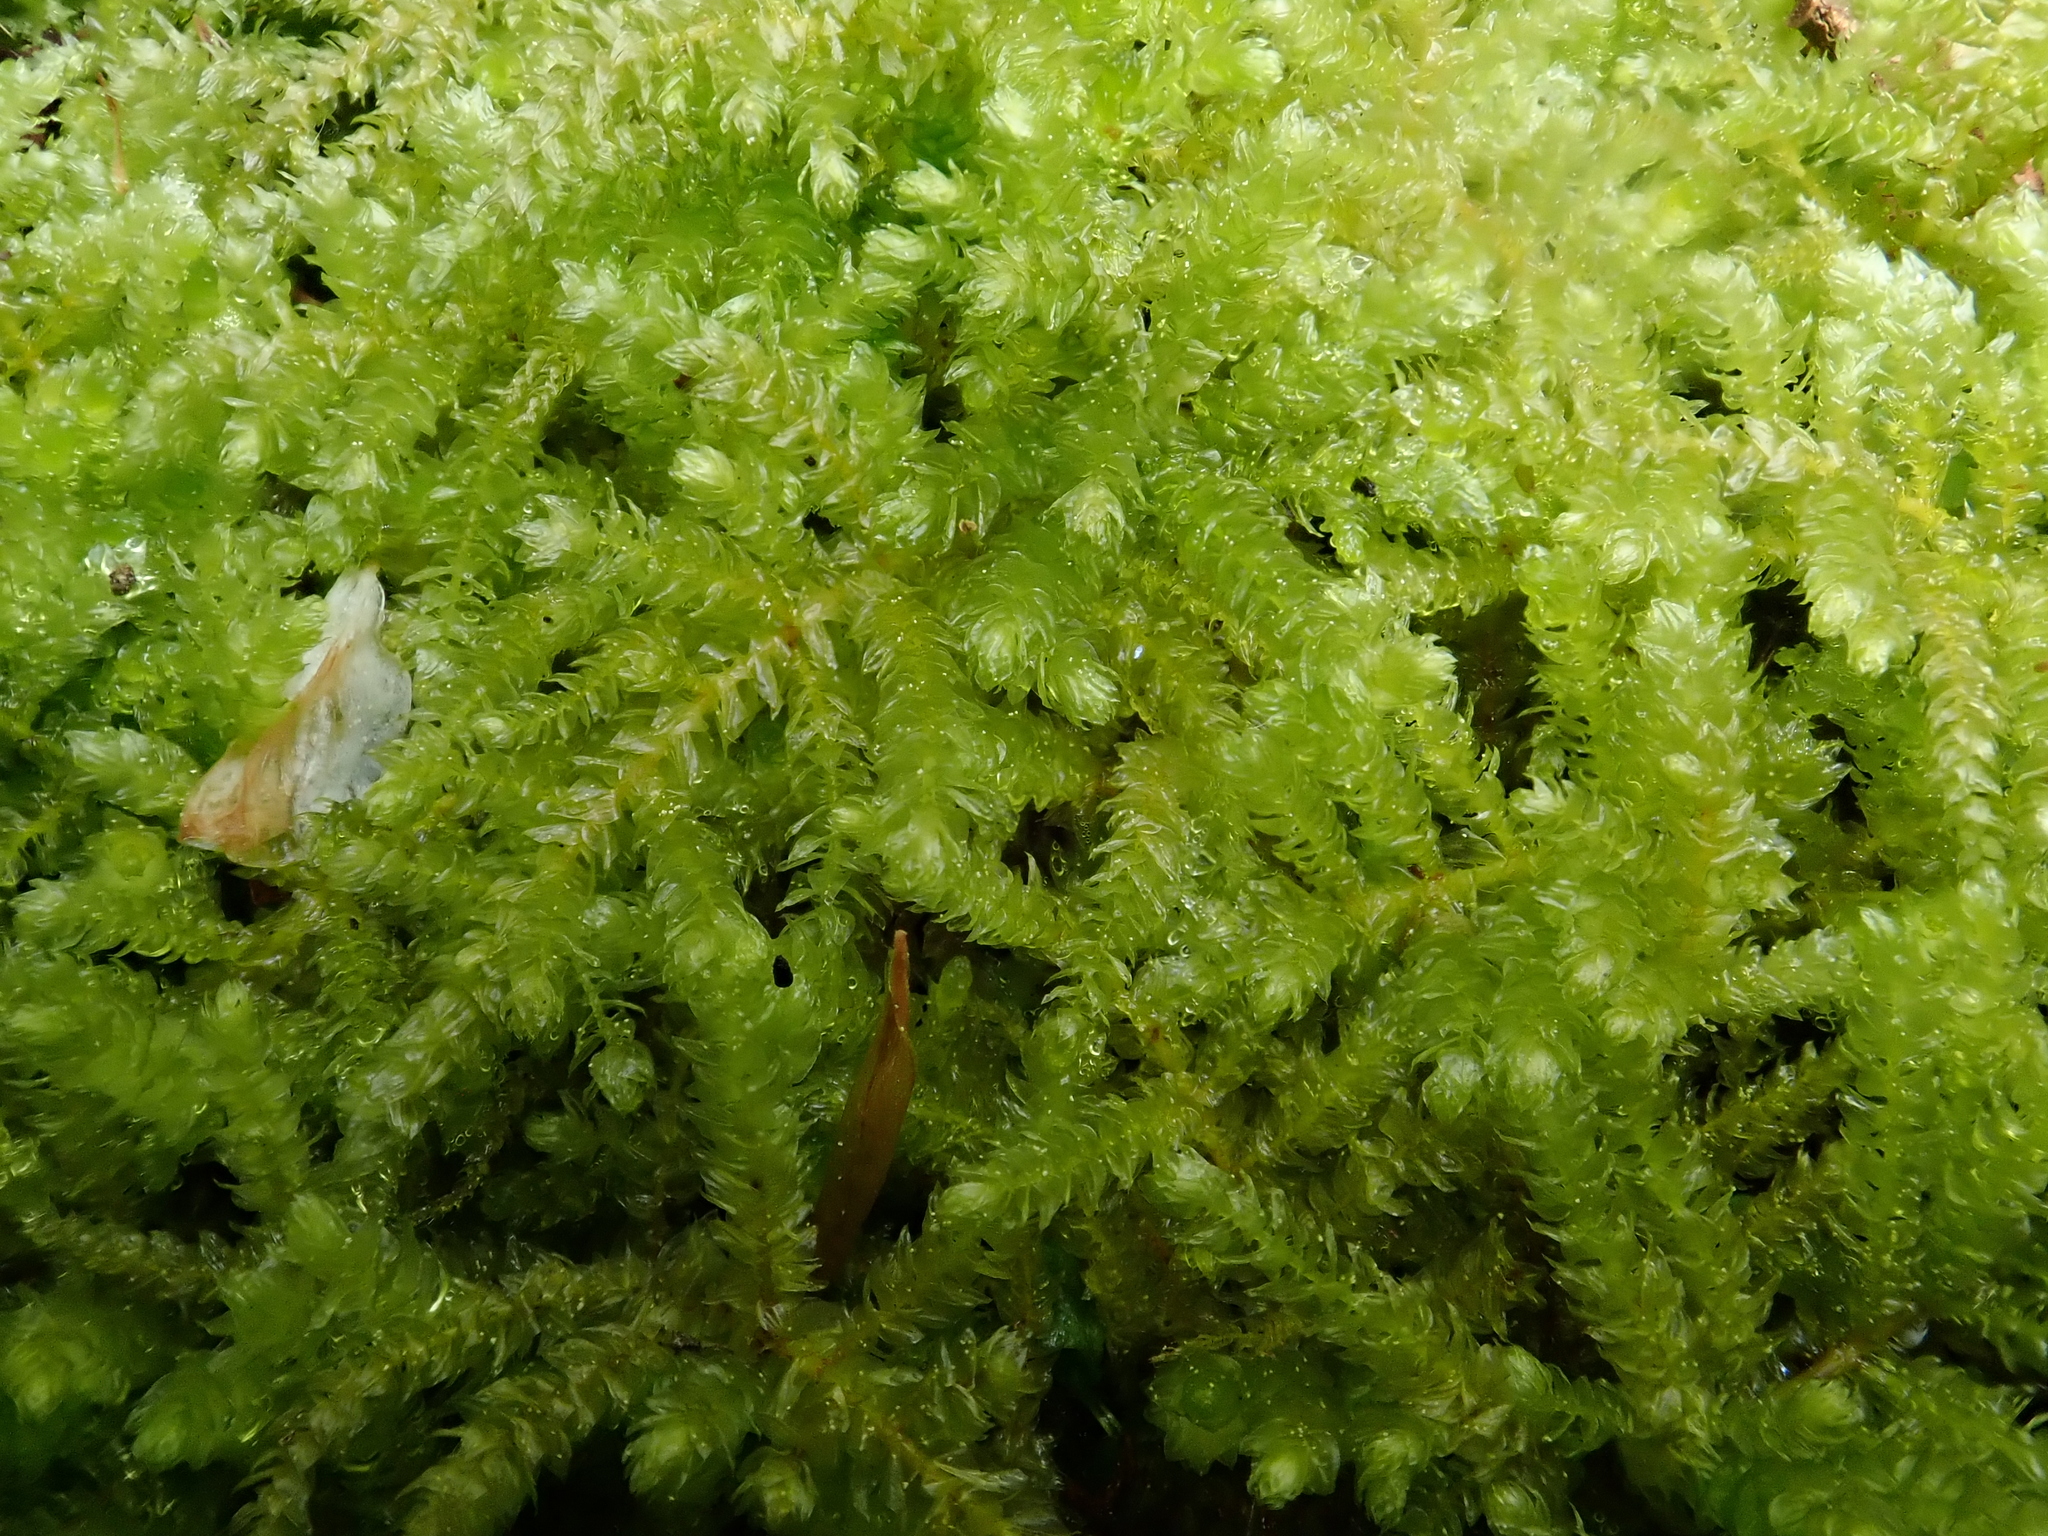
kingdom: Plantae
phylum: Bryophyta
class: Bryopsida
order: Hypnales
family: Brachytheciaceae
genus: Eurhynchium
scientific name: Eurhynchium angustirete
